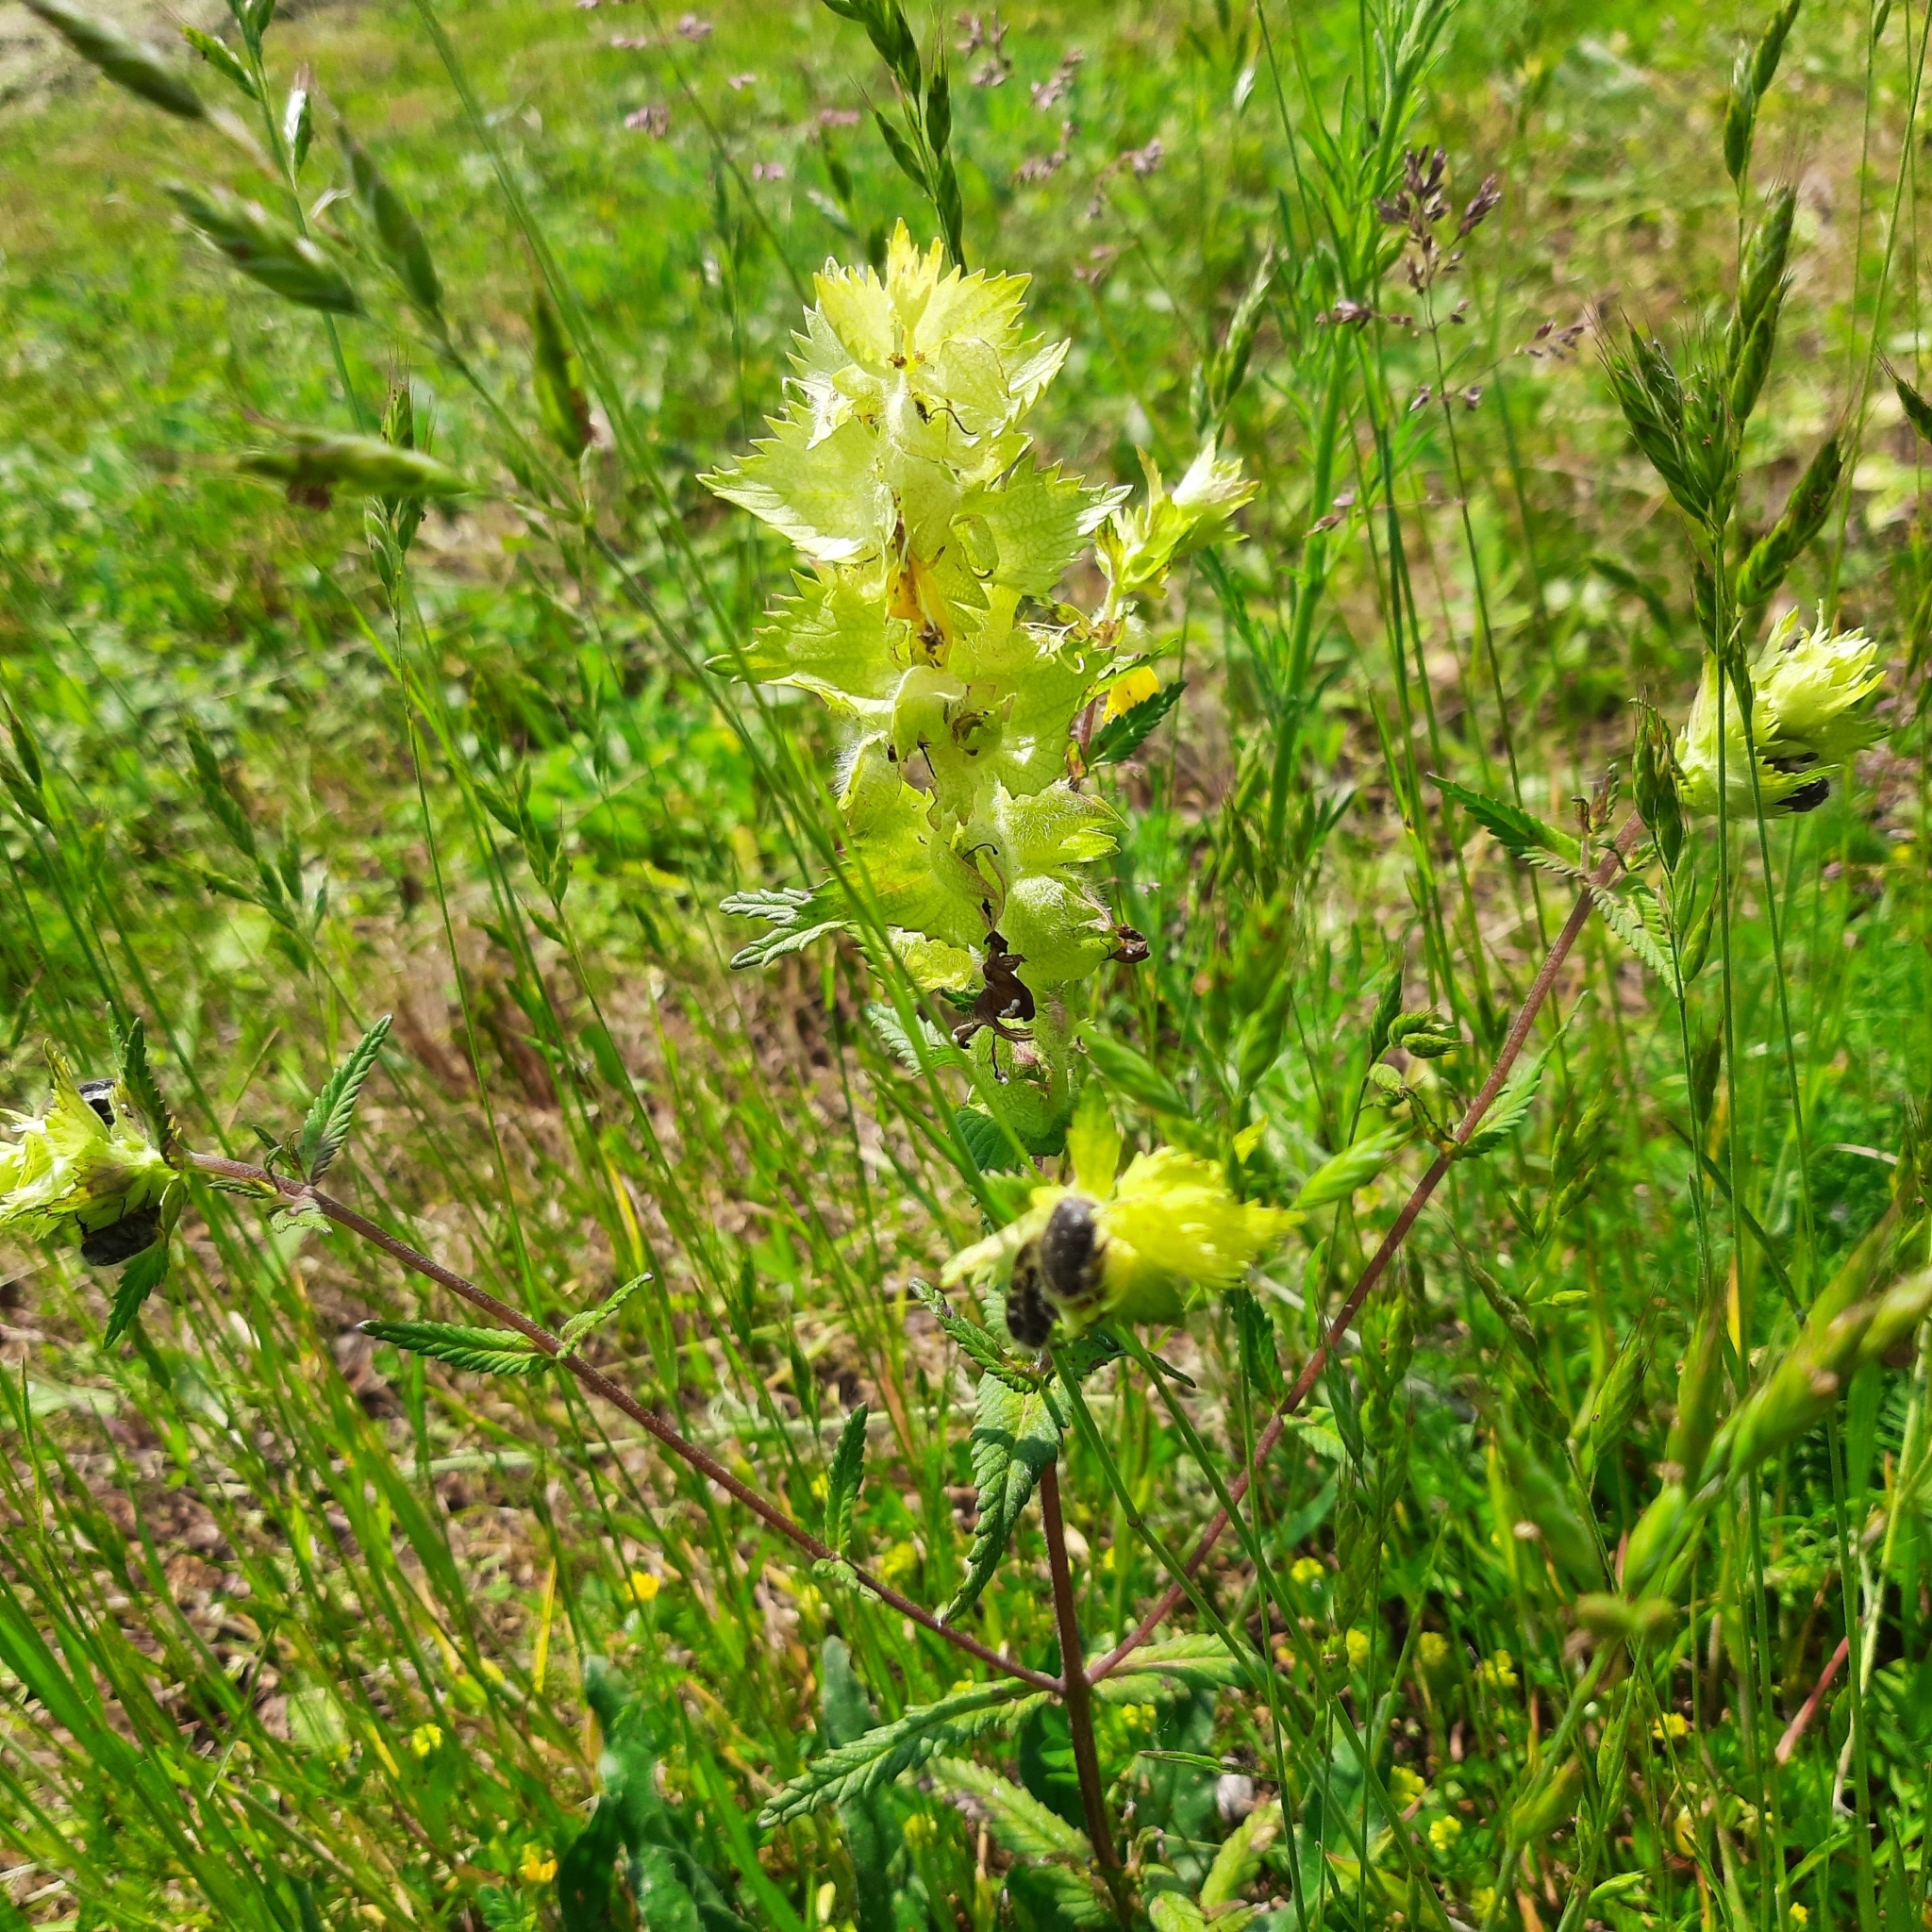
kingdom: Plantae
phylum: Tracheophyta
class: Magnoliopsida
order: Lamiales
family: Orobanchaceae
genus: Rhinanthus
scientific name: Rhinanthus alectorolophus
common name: Greater yellow-rattle
